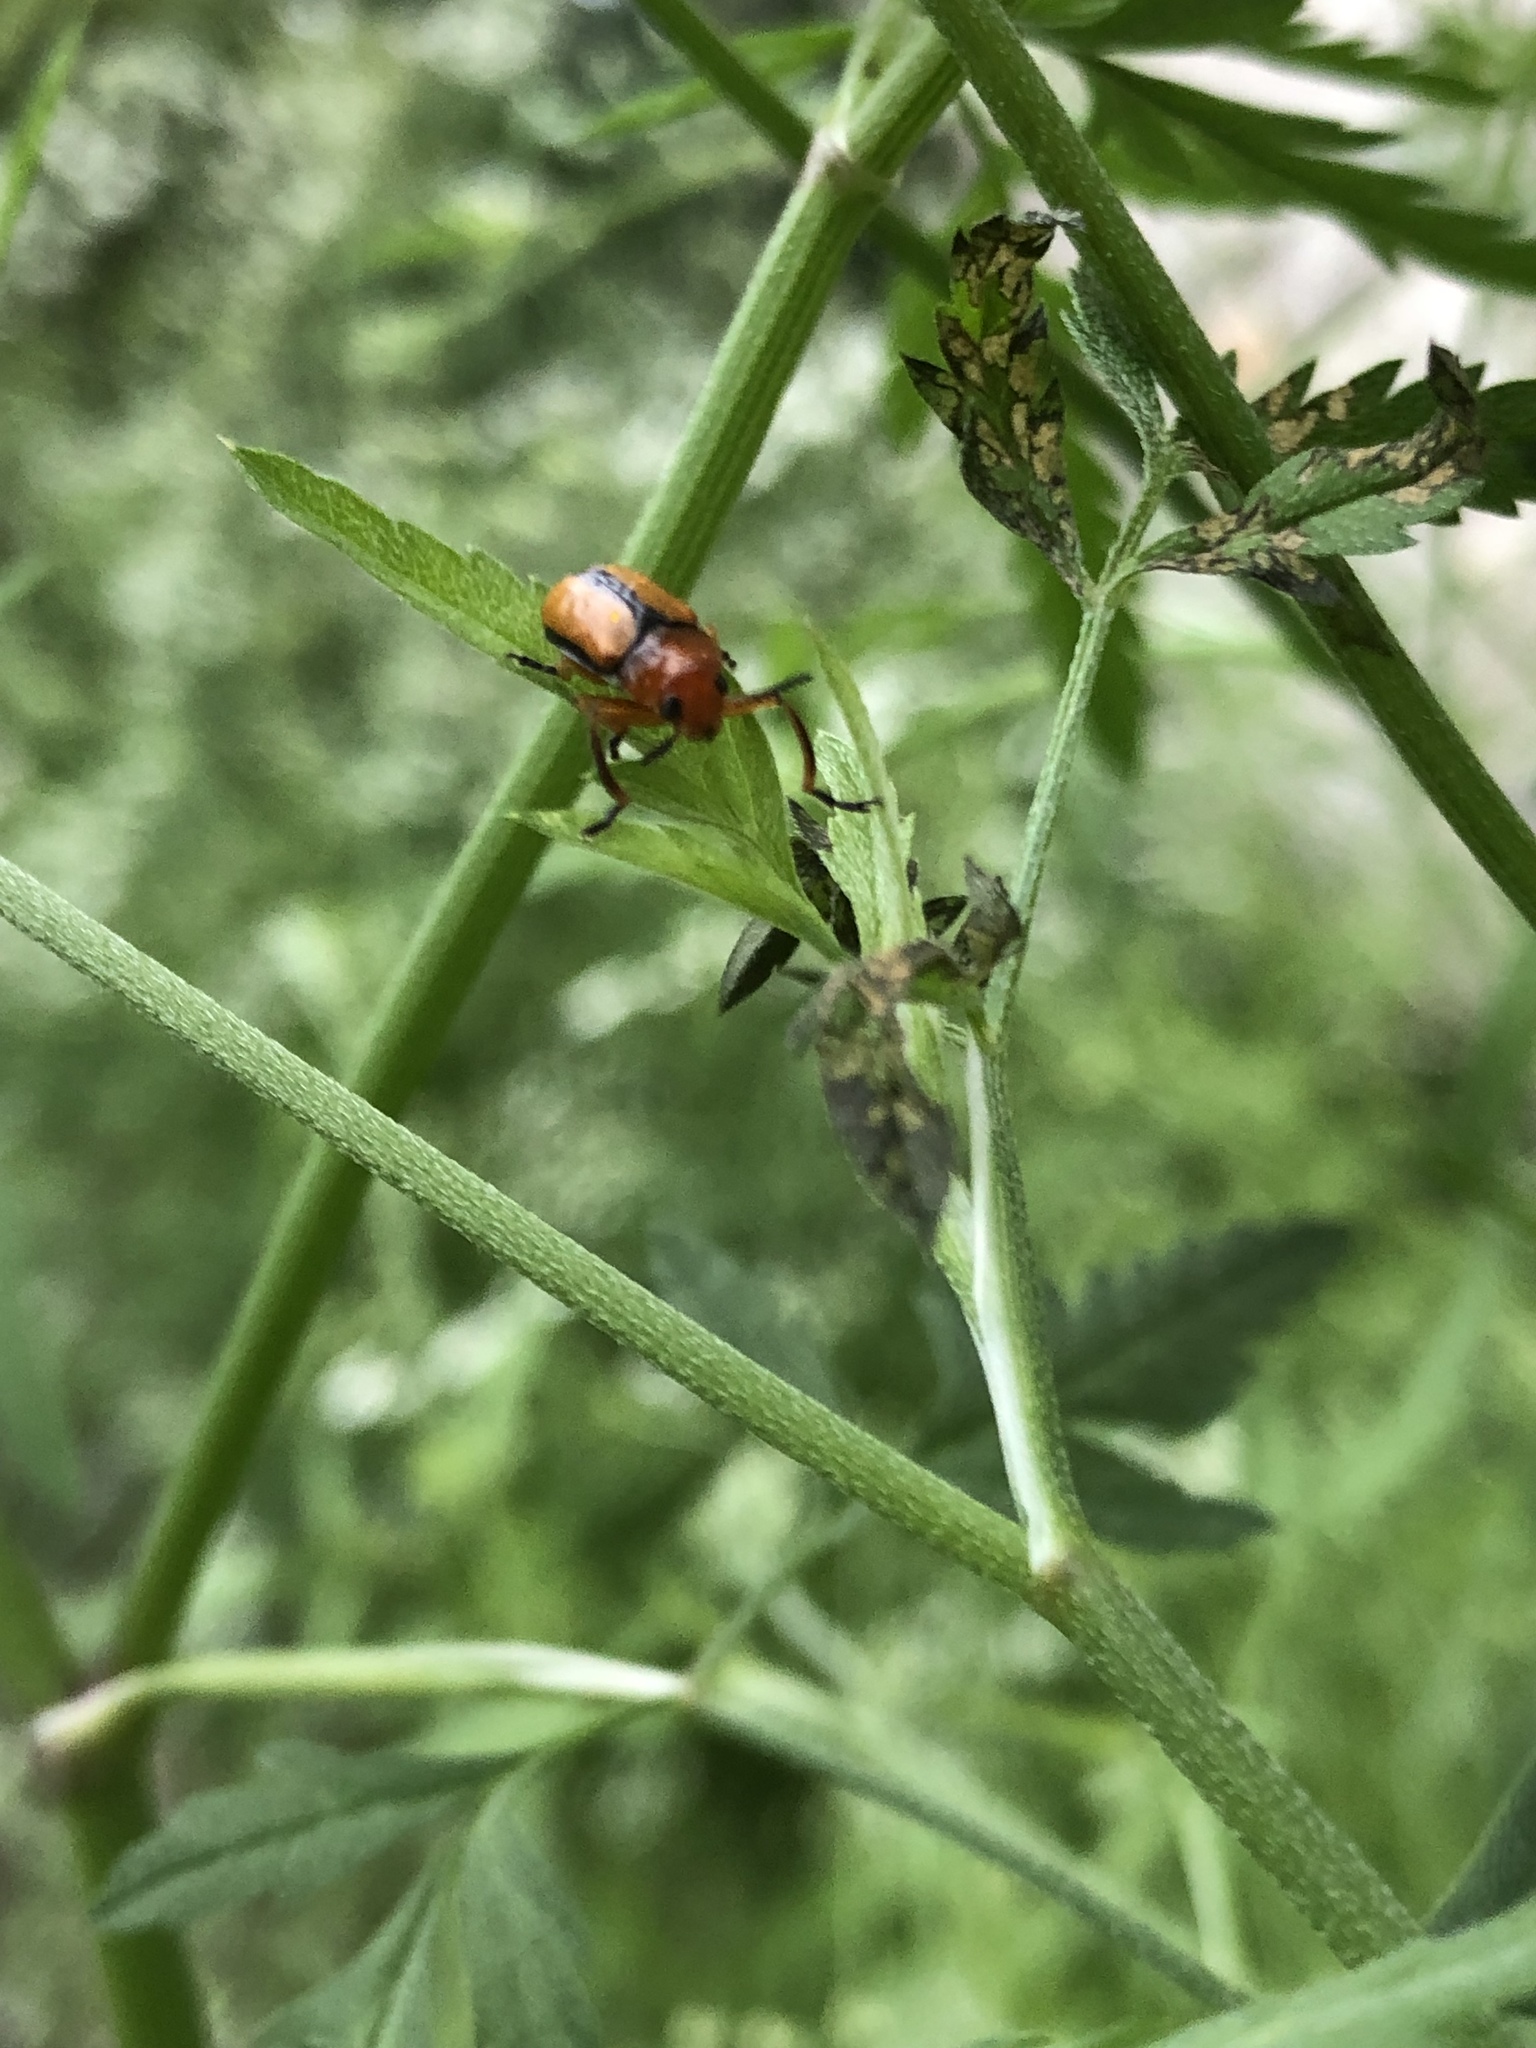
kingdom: Animalia
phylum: Arthropoda
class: Insecta
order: Coleoptera
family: Chrysomelidae
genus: Anomoea
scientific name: Anomoea laticlavia
